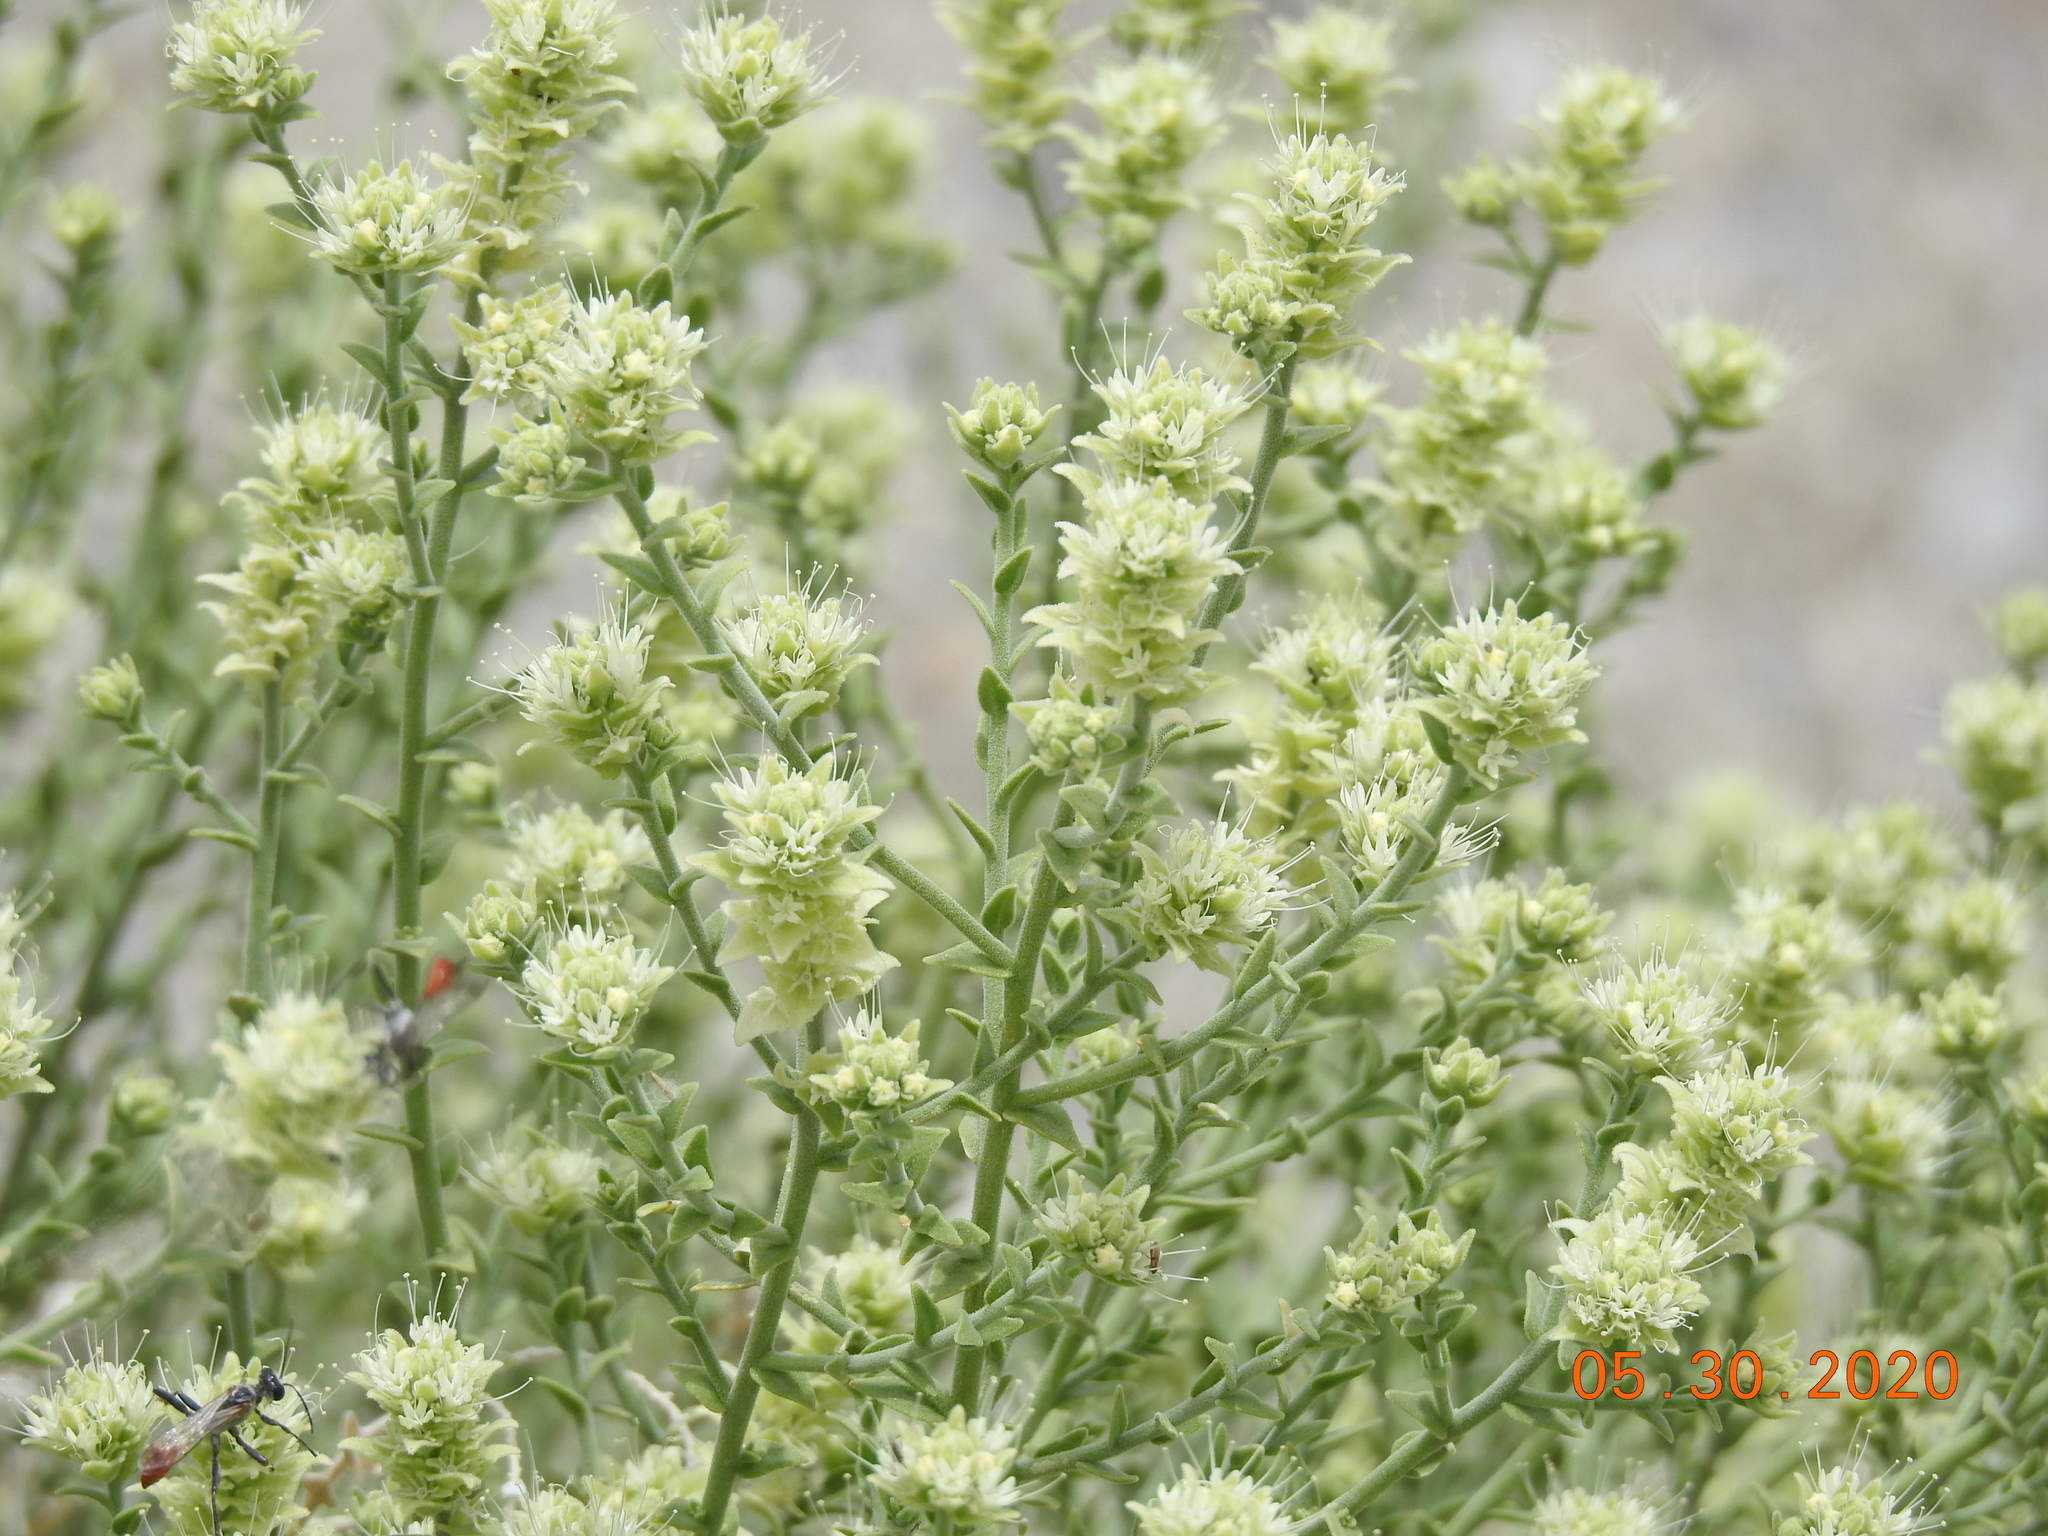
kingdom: Plantae
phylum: Tracheophyta
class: Magnoliopsida
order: Cornales
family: Loasaceae
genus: Petalonyx
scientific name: Petalonyx thurberi
